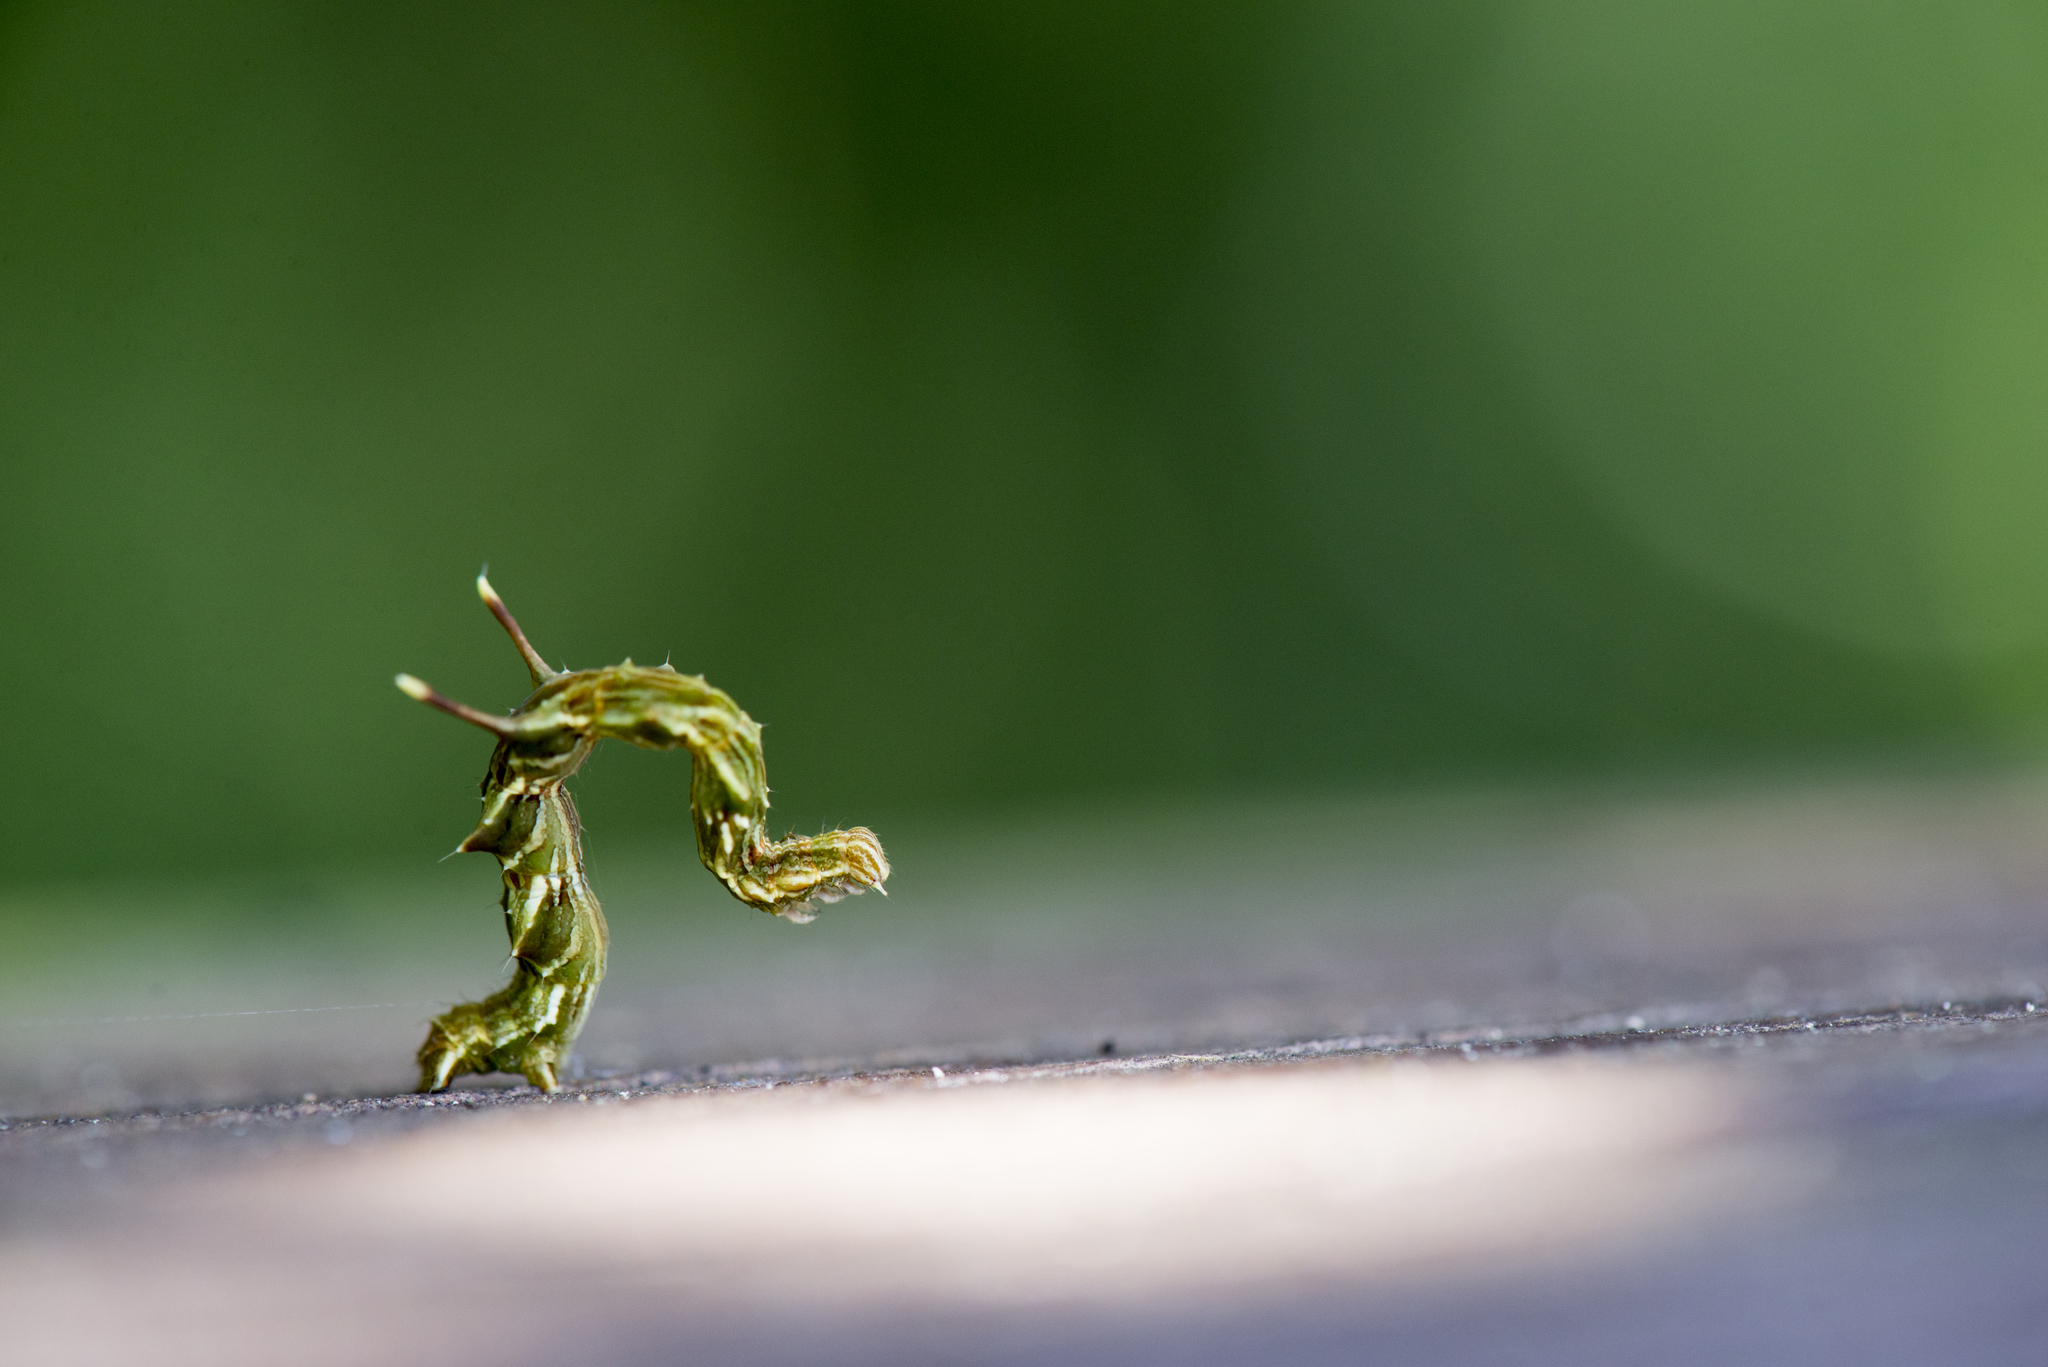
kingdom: Animalia
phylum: Arthropoda
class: Insecta
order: Lepidoptera
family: Geometridae
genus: Traminda
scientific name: Traminda aventiaria
